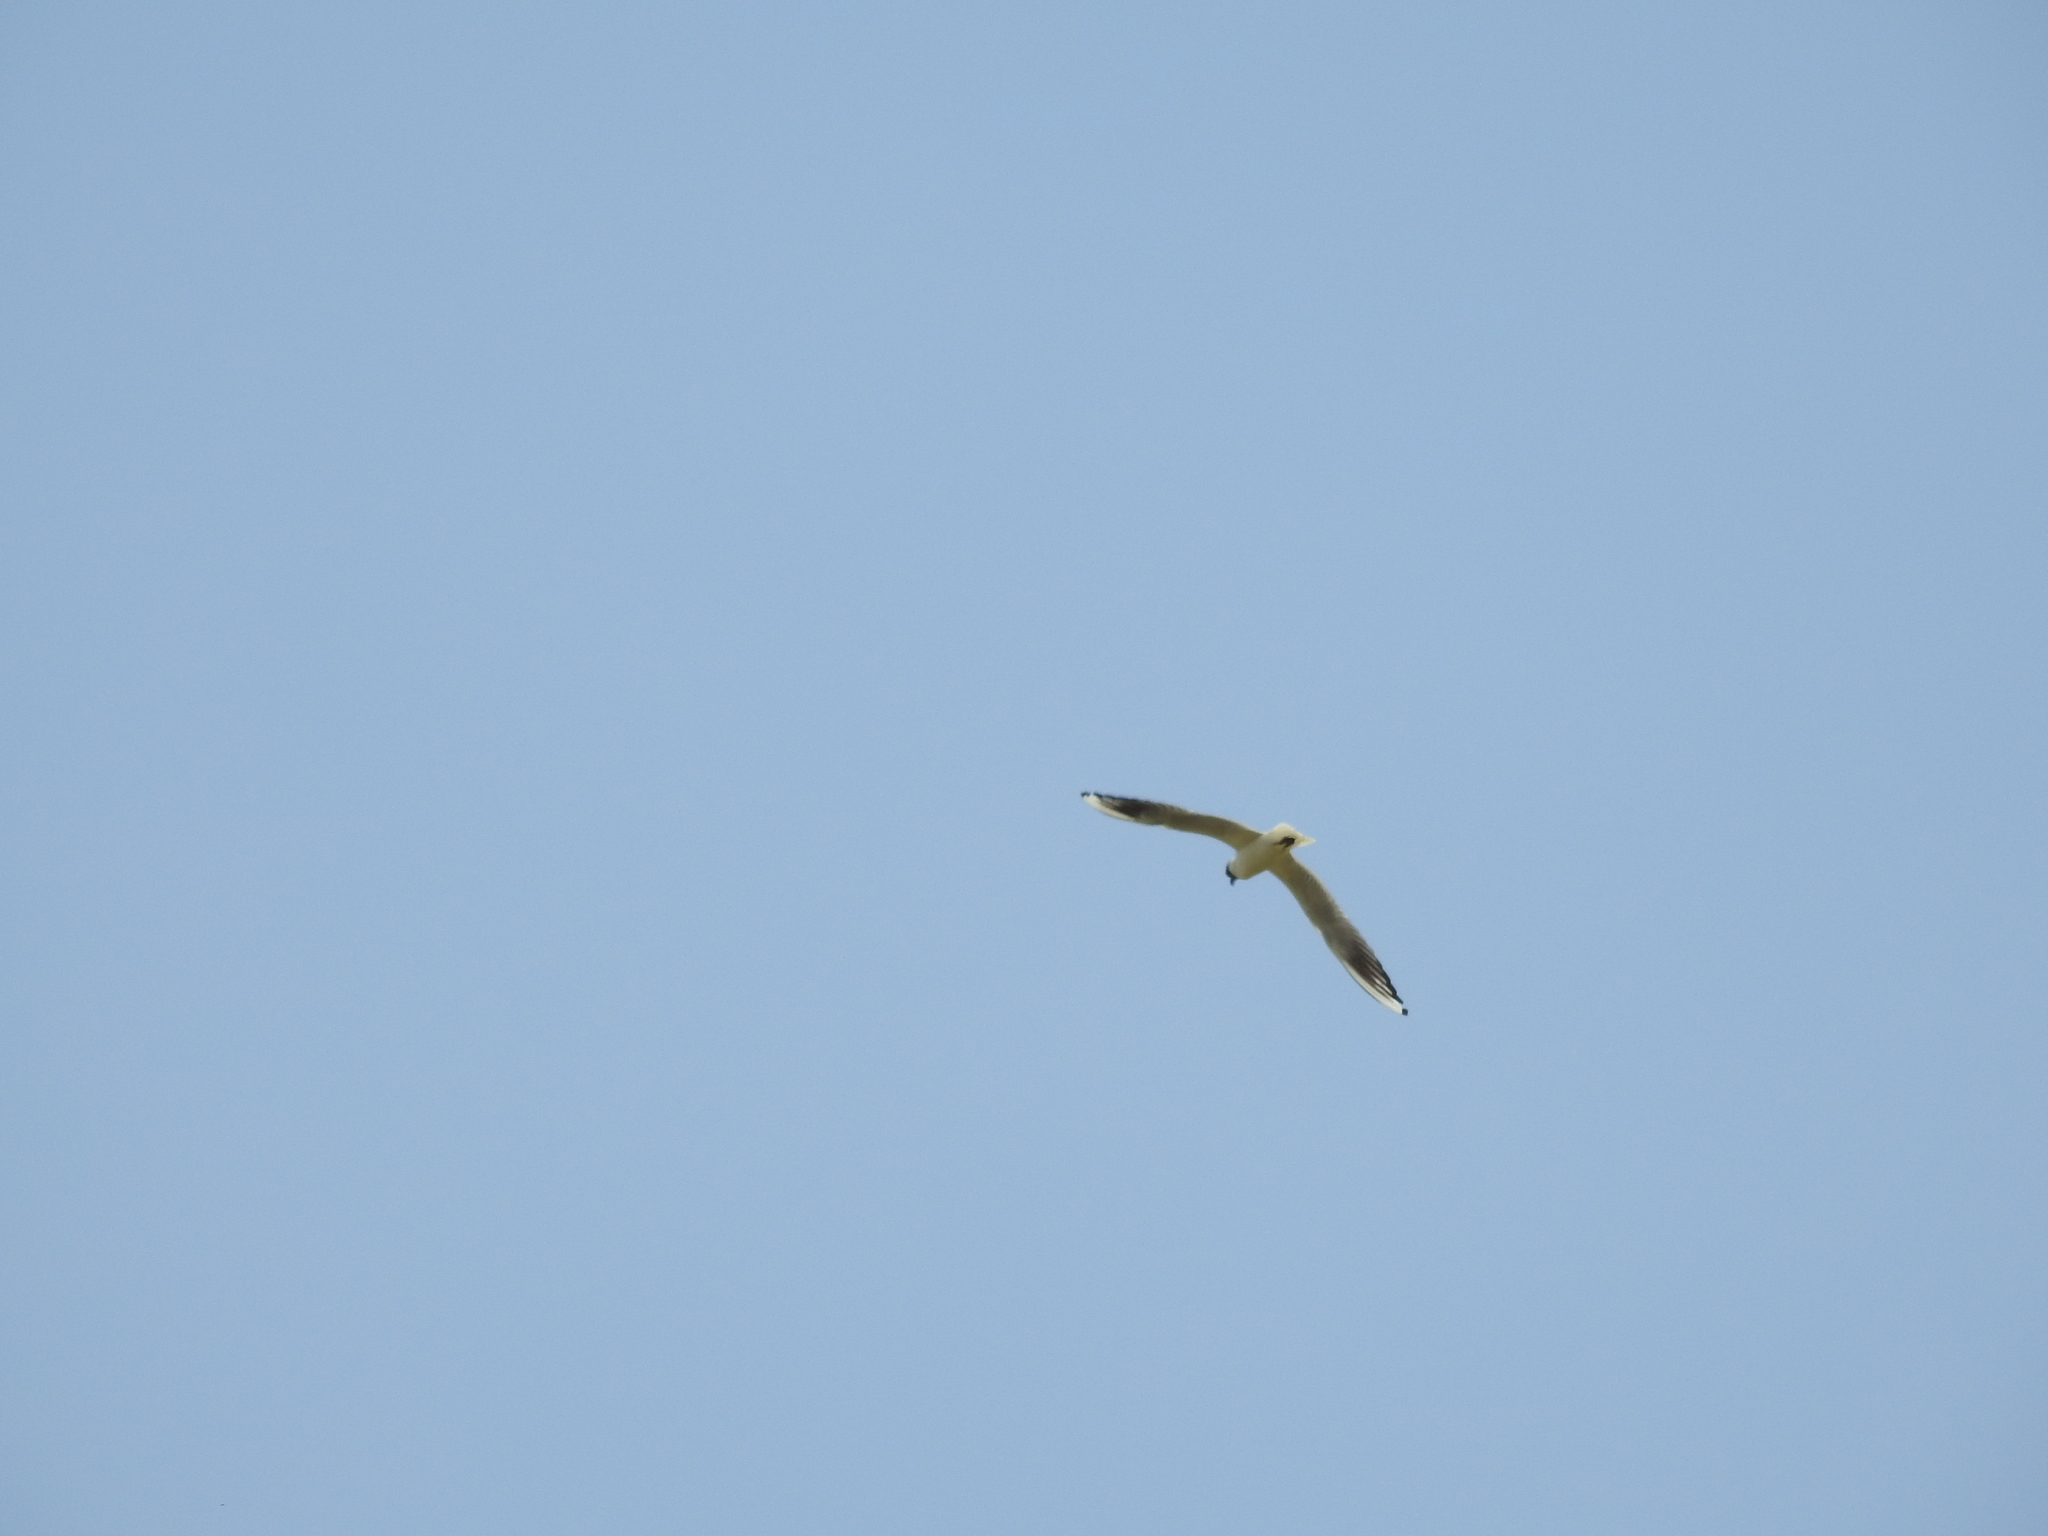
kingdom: Animalia
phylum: Chordata
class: Aves
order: Charadriiformes
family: Laridae
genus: Chroicocephalus
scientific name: Chroicocephalus ridibundus
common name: Black-headed gull
